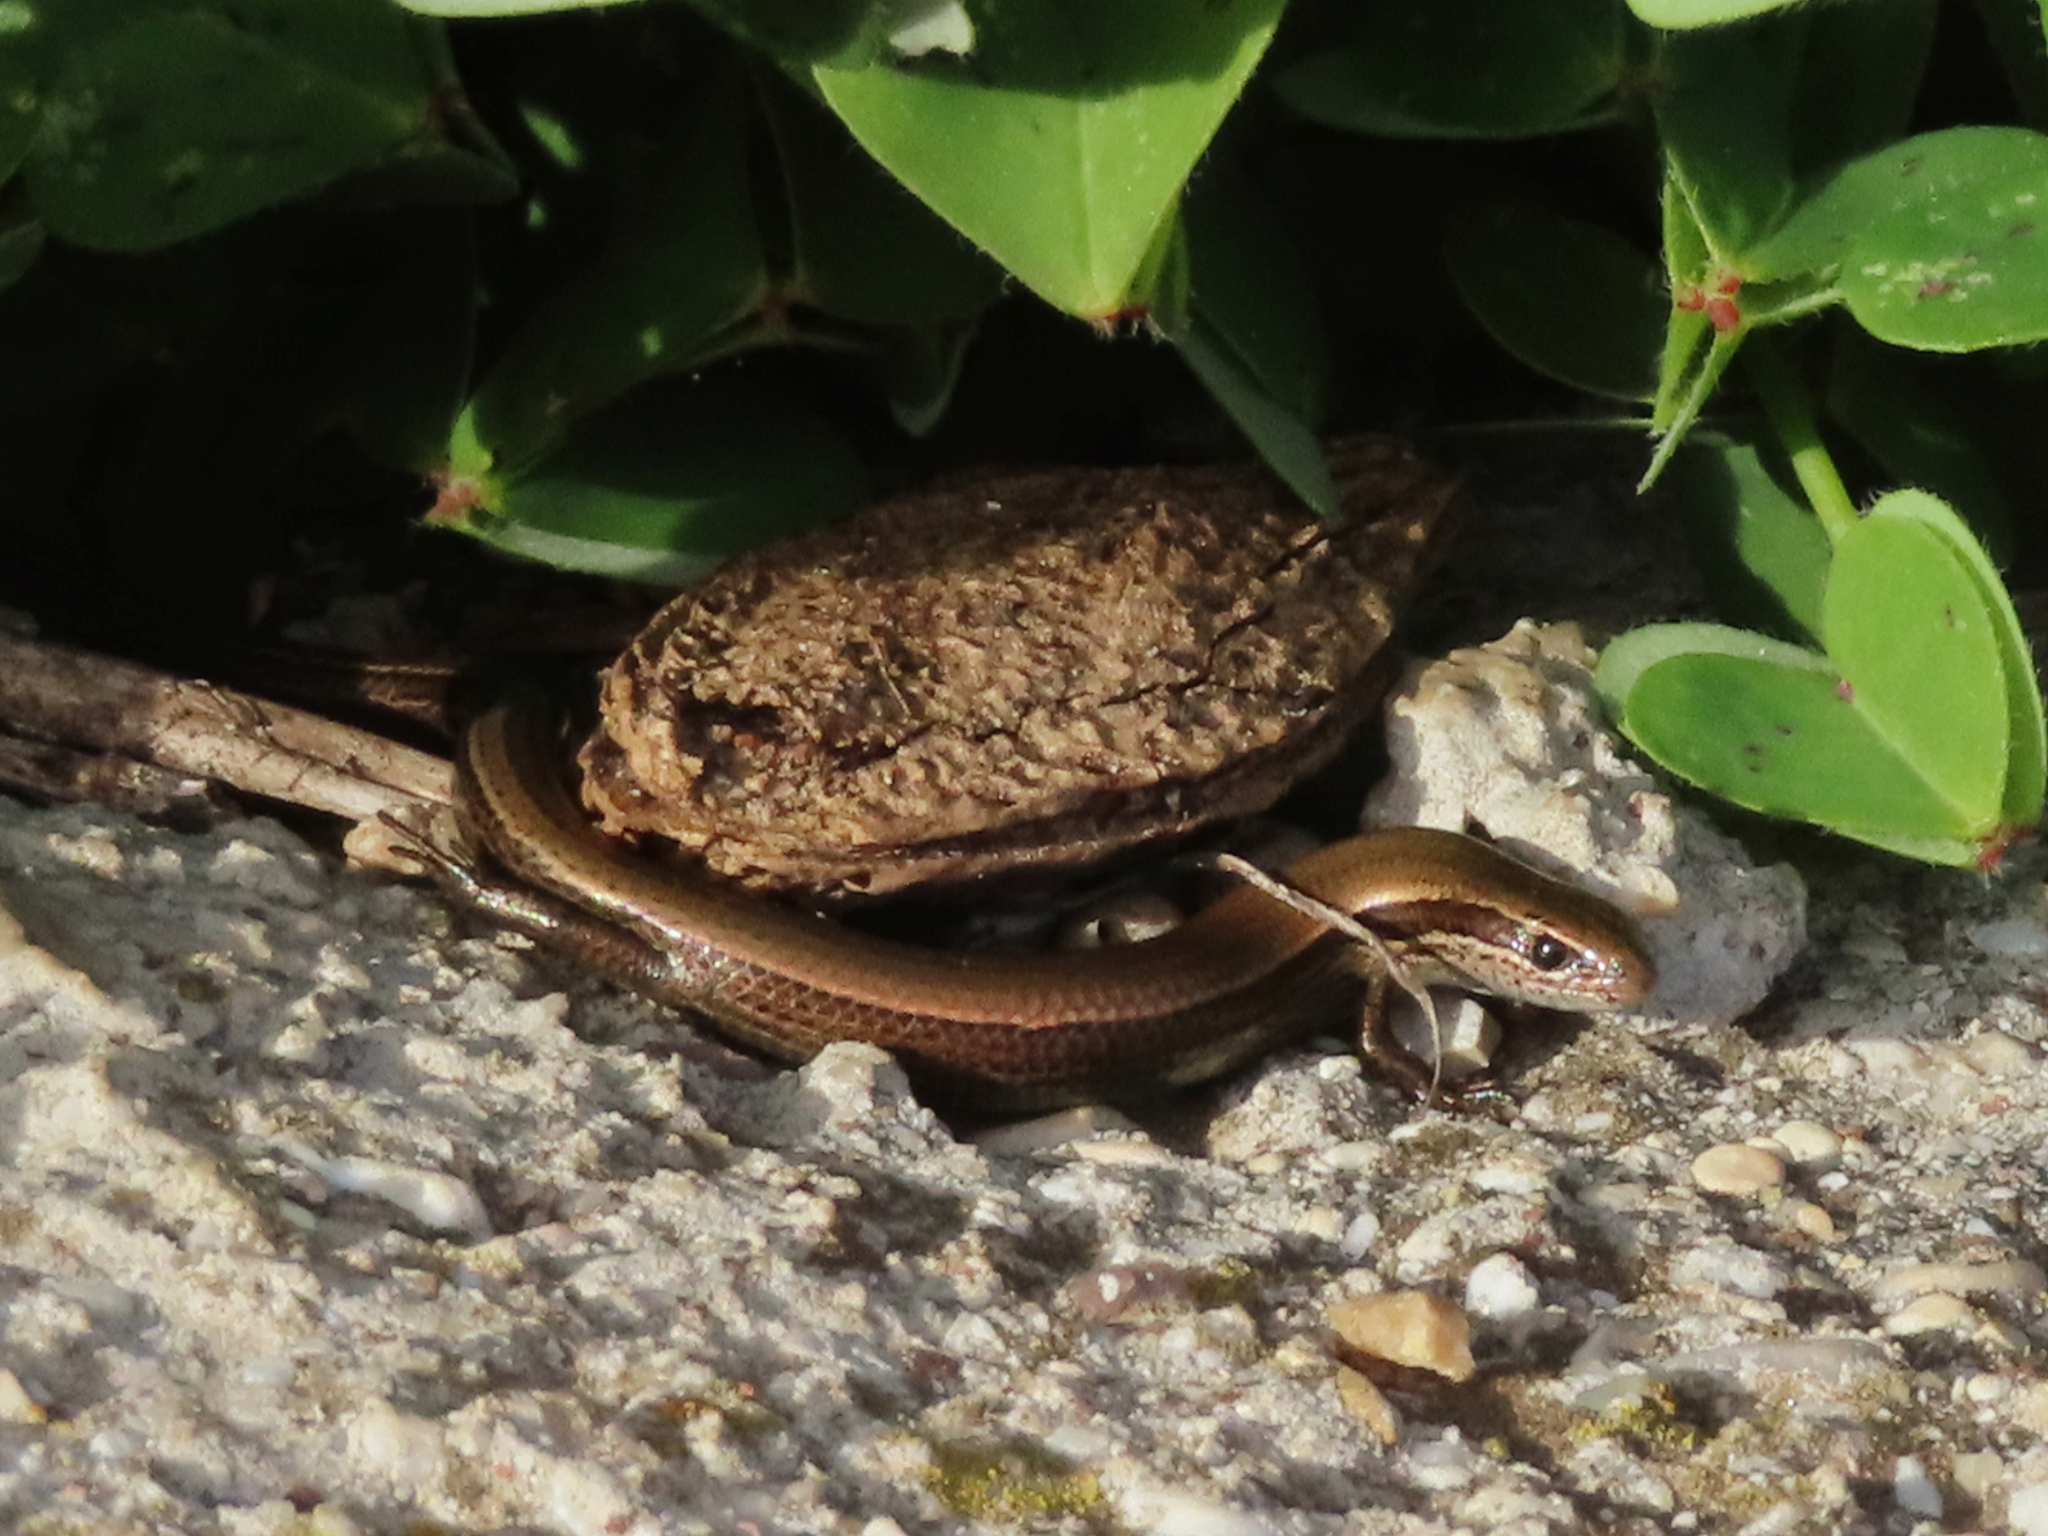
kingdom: Animalia
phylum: Chordata
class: Squamata
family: Scincidae
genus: Ablepharus
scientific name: Ablepharus kitaibelii
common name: Juniper skink
